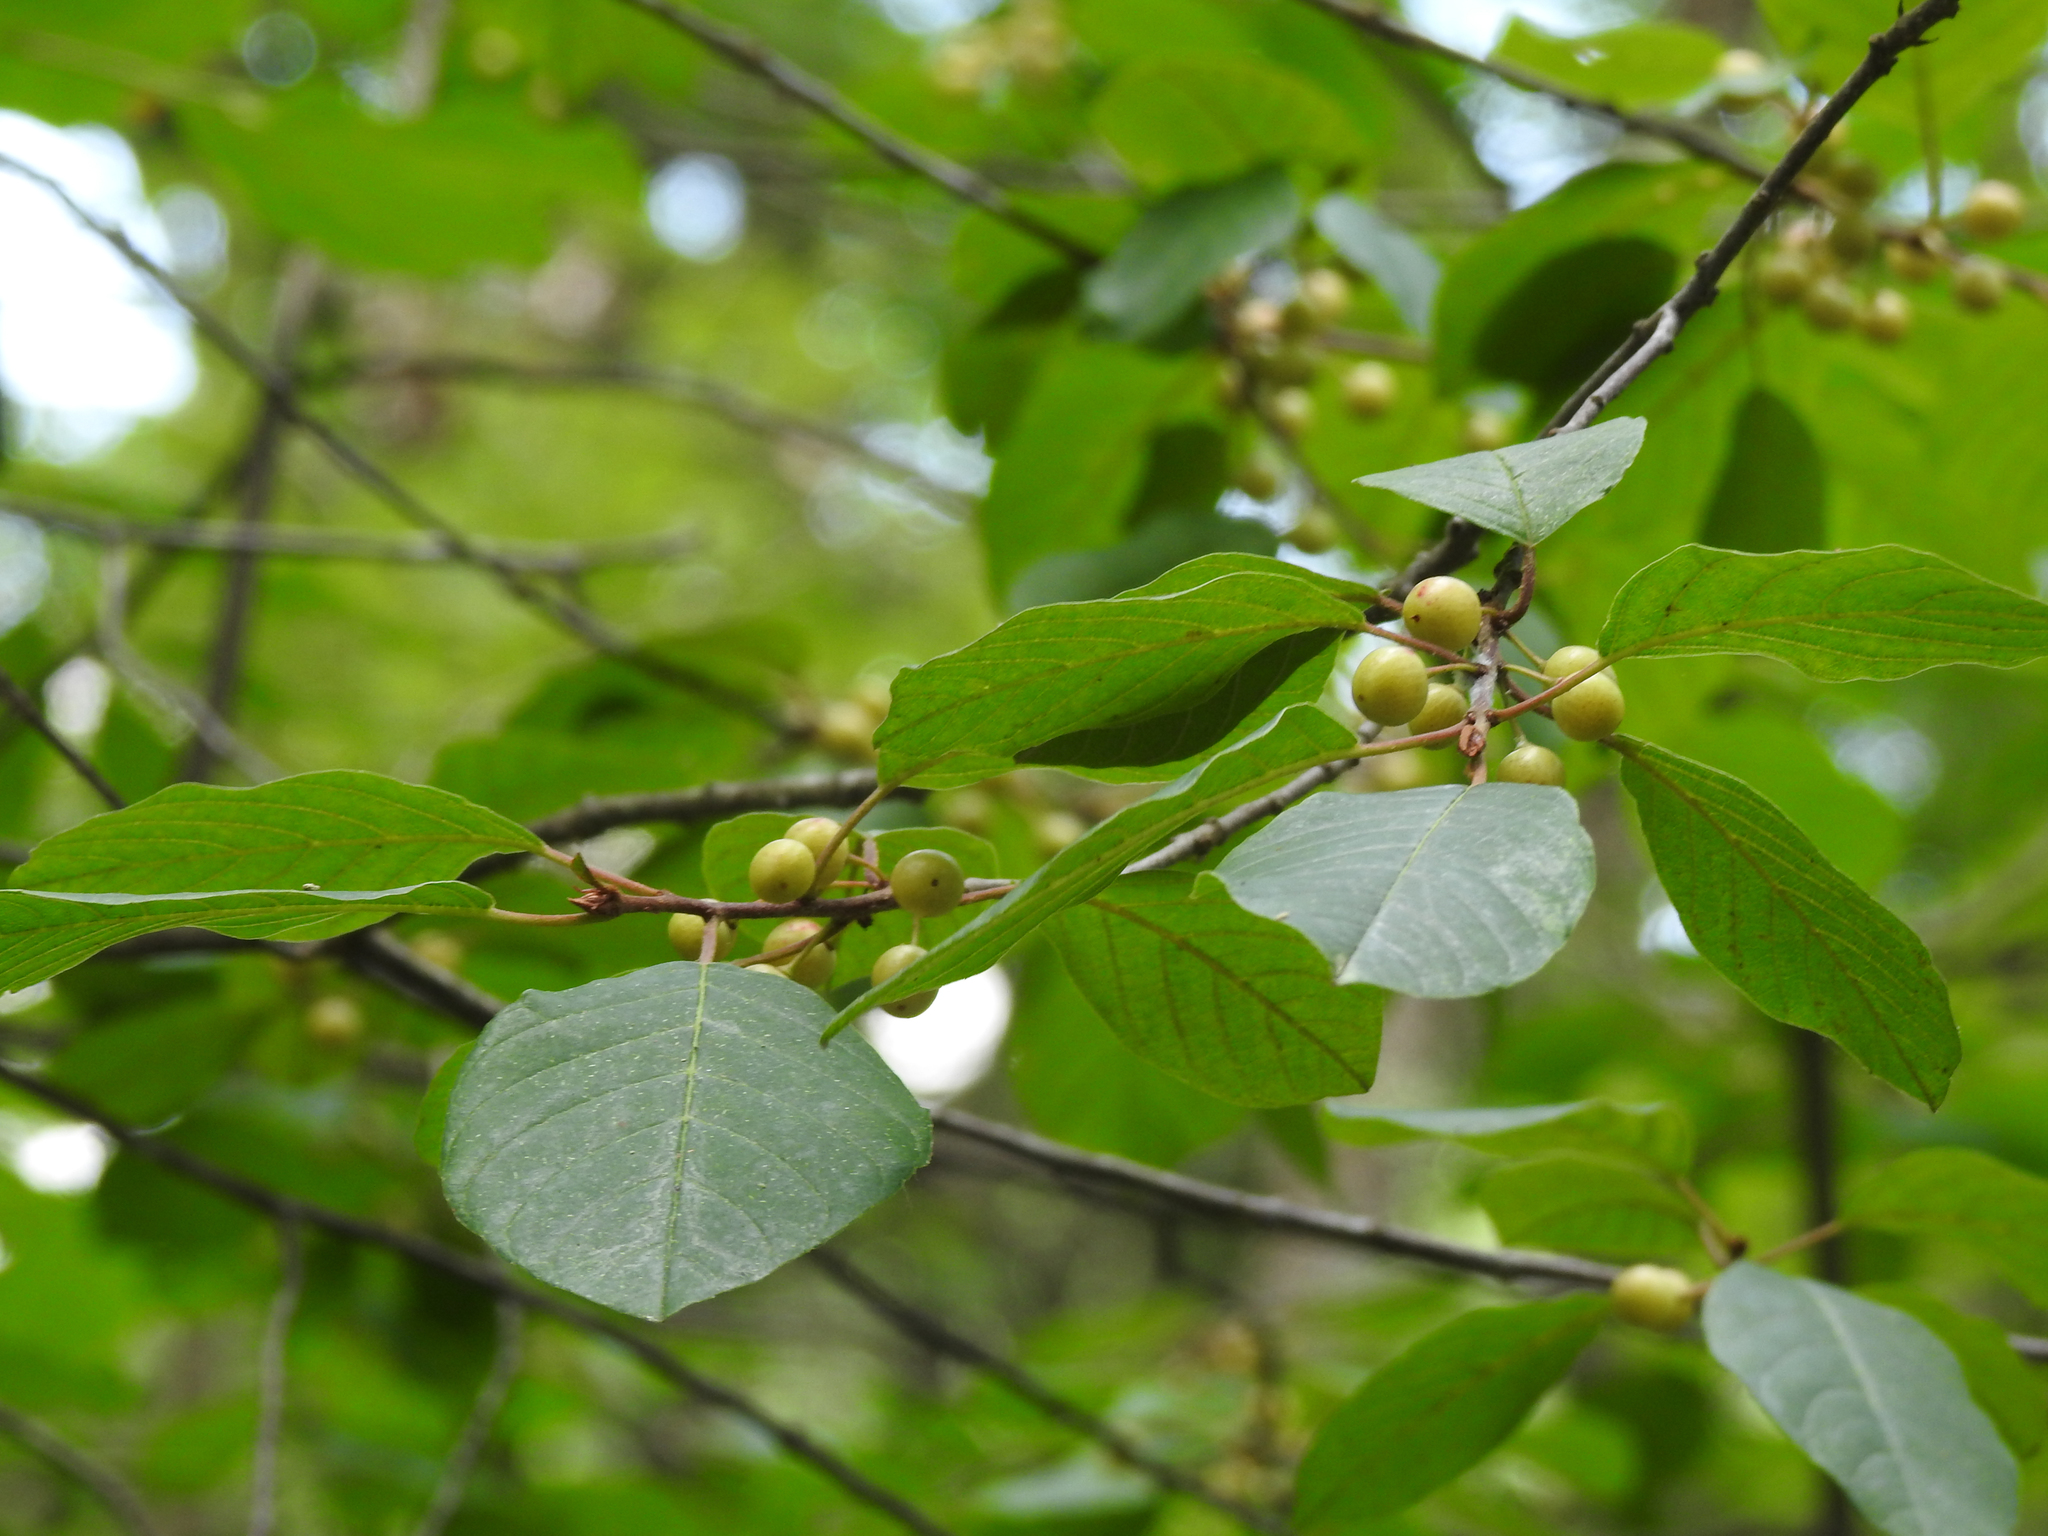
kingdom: Plantae
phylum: Tracheophyta
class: Magnoliopsida
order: Rosales
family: Rhamnaceae
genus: Frangula
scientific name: Frangula alnus
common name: Alder buckthorn
